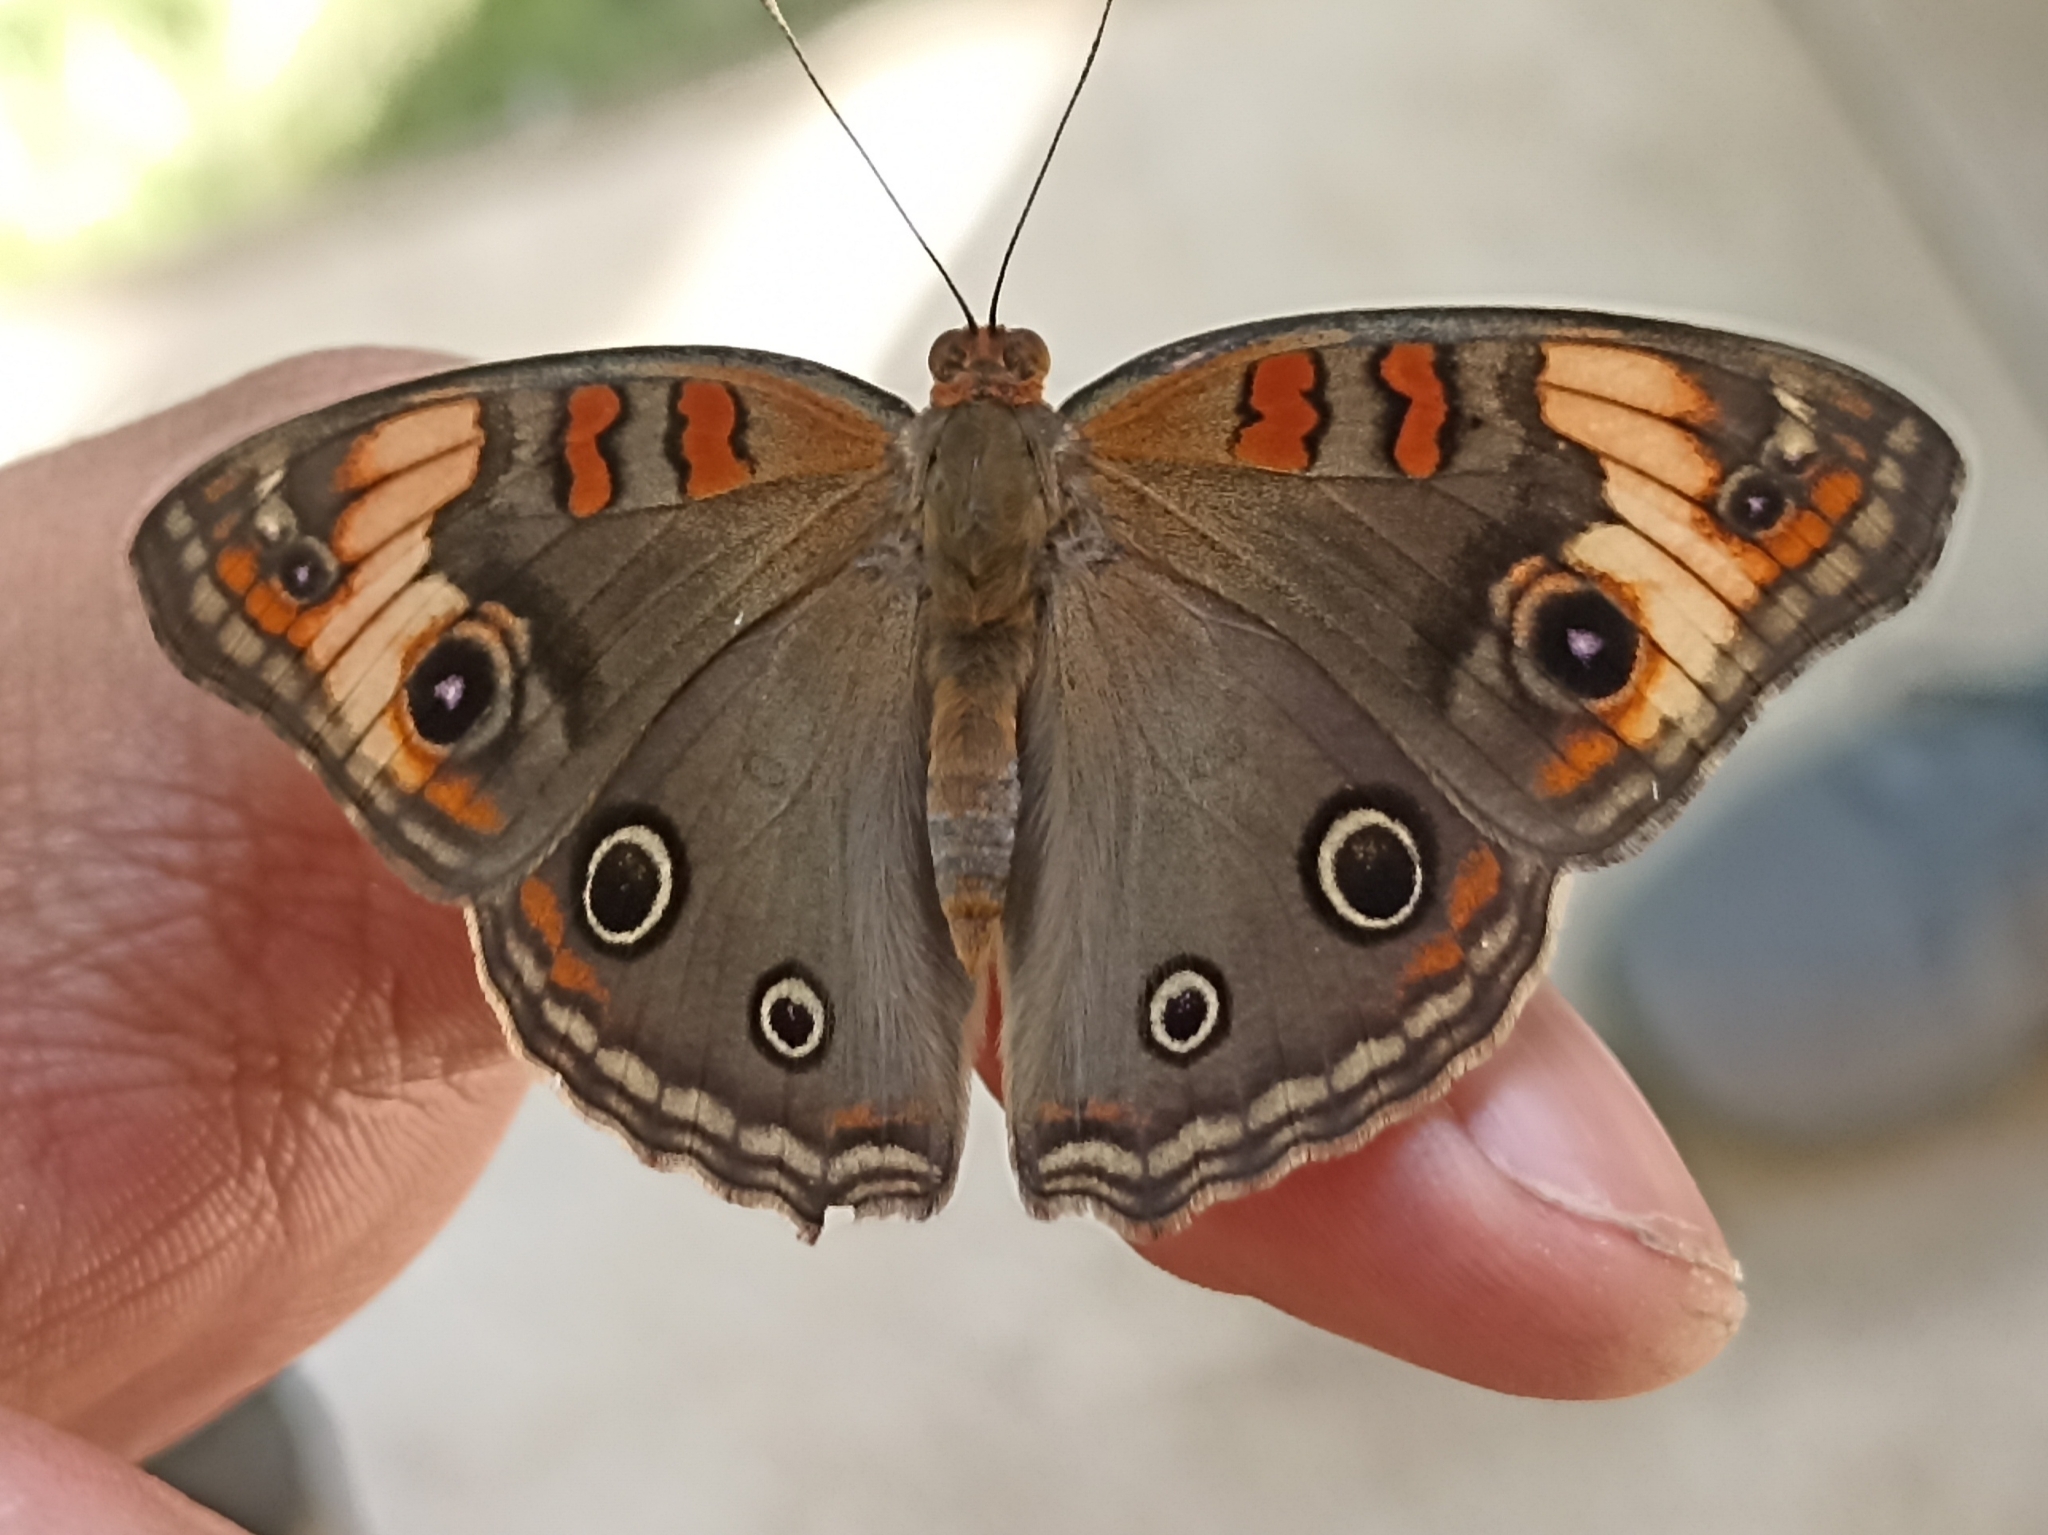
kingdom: Animalia
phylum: Arthropoda
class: Insecta
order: Lepidoptera
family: Nymphalidae
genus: Junonia
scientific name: Junonia lavinia
